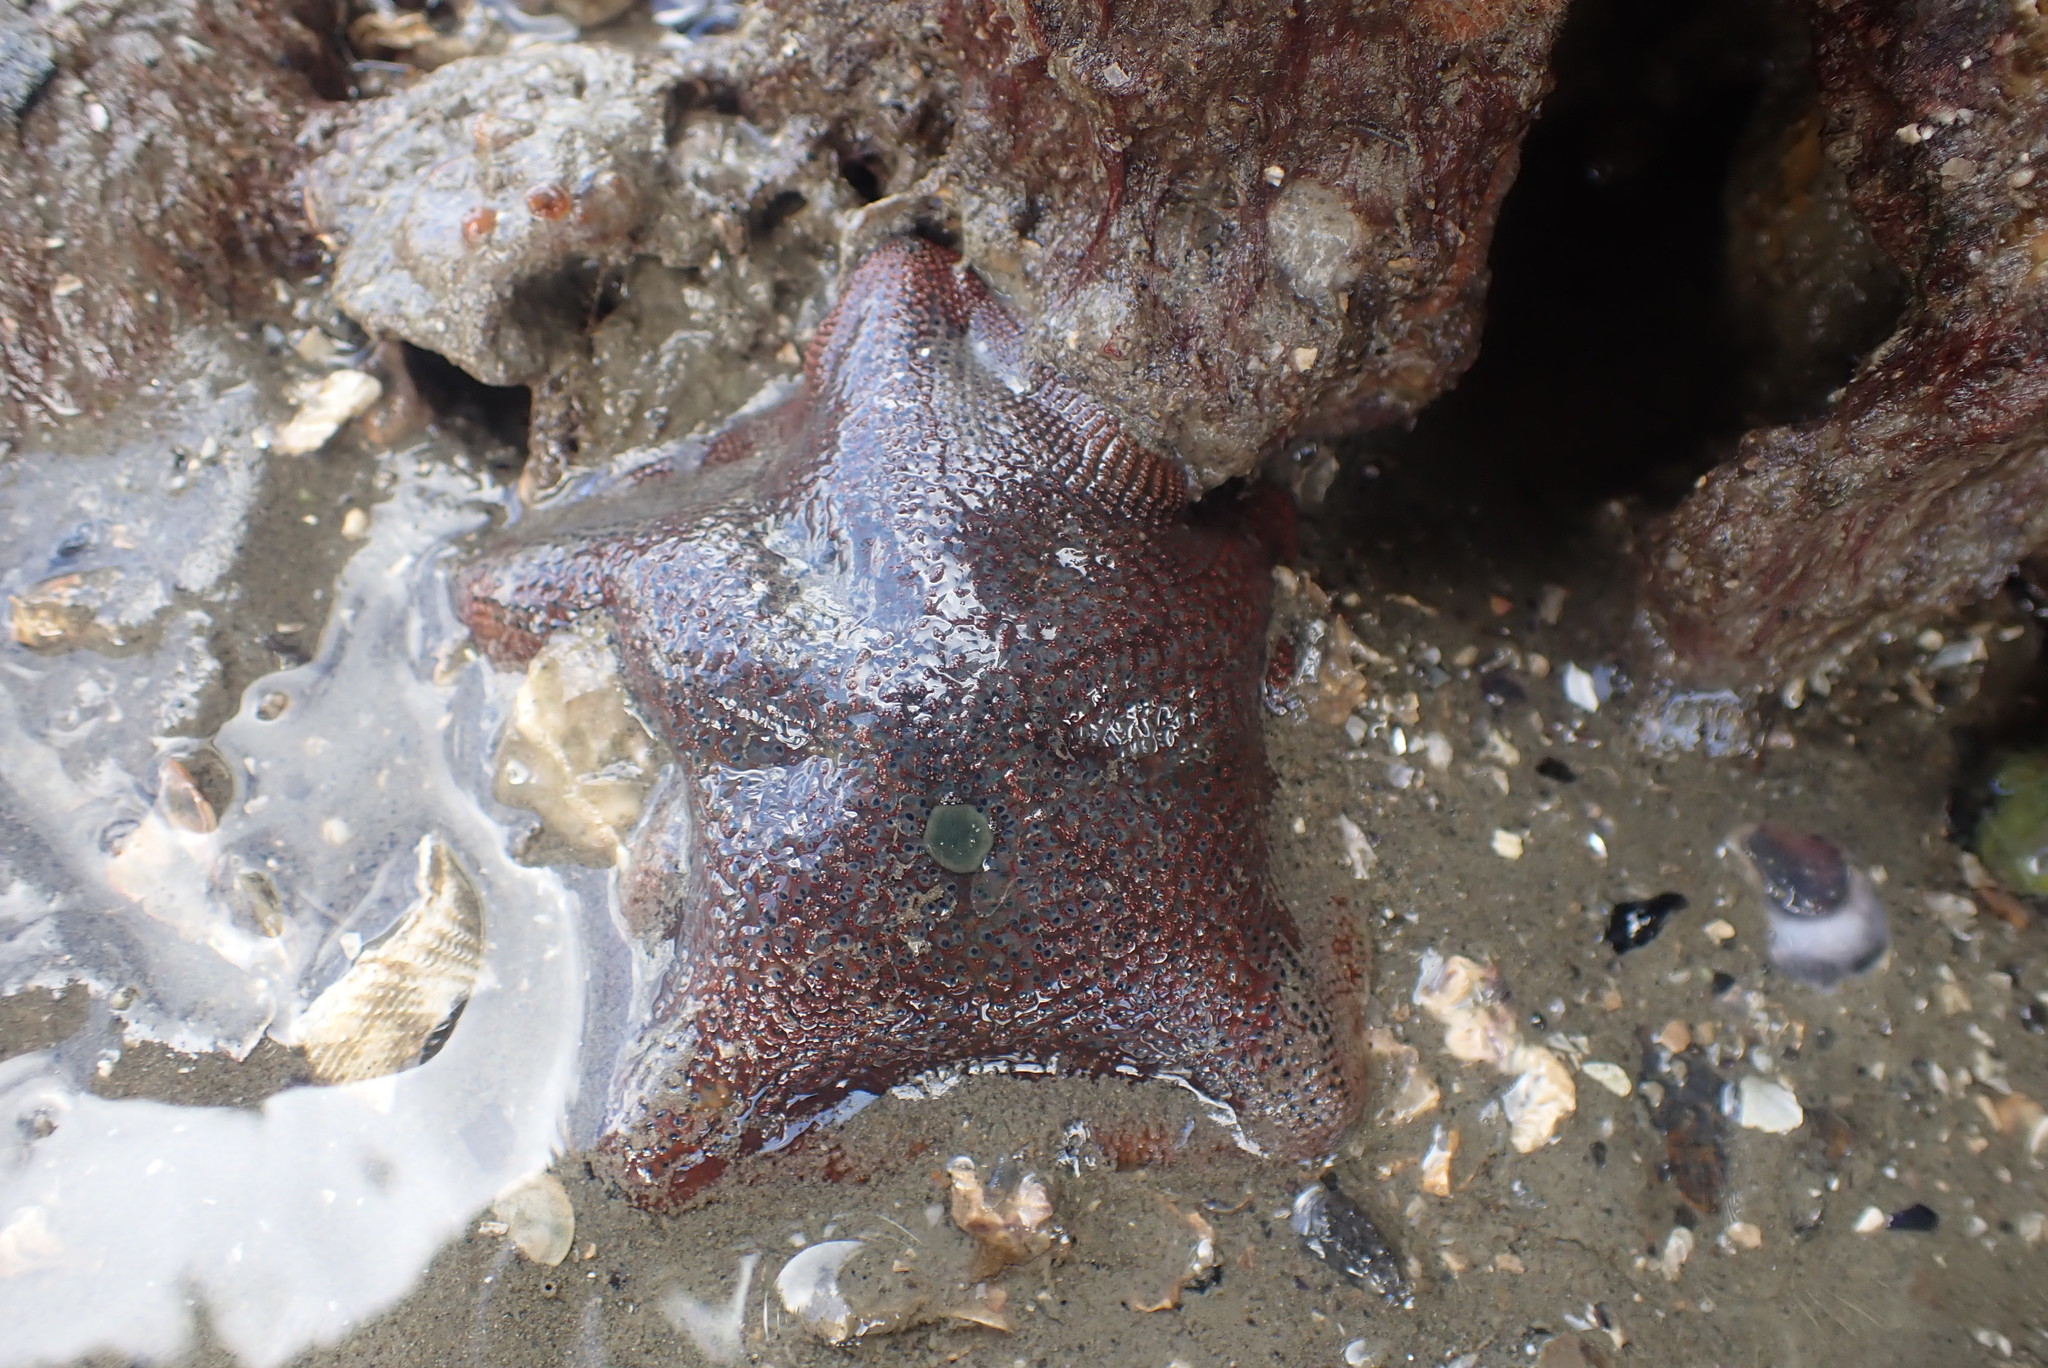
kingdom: Animalia
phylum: Echinodermata
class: Asteroidea
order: Valvatida
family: Asterinidae
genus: Patiriella
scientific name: Patiriella regularis
